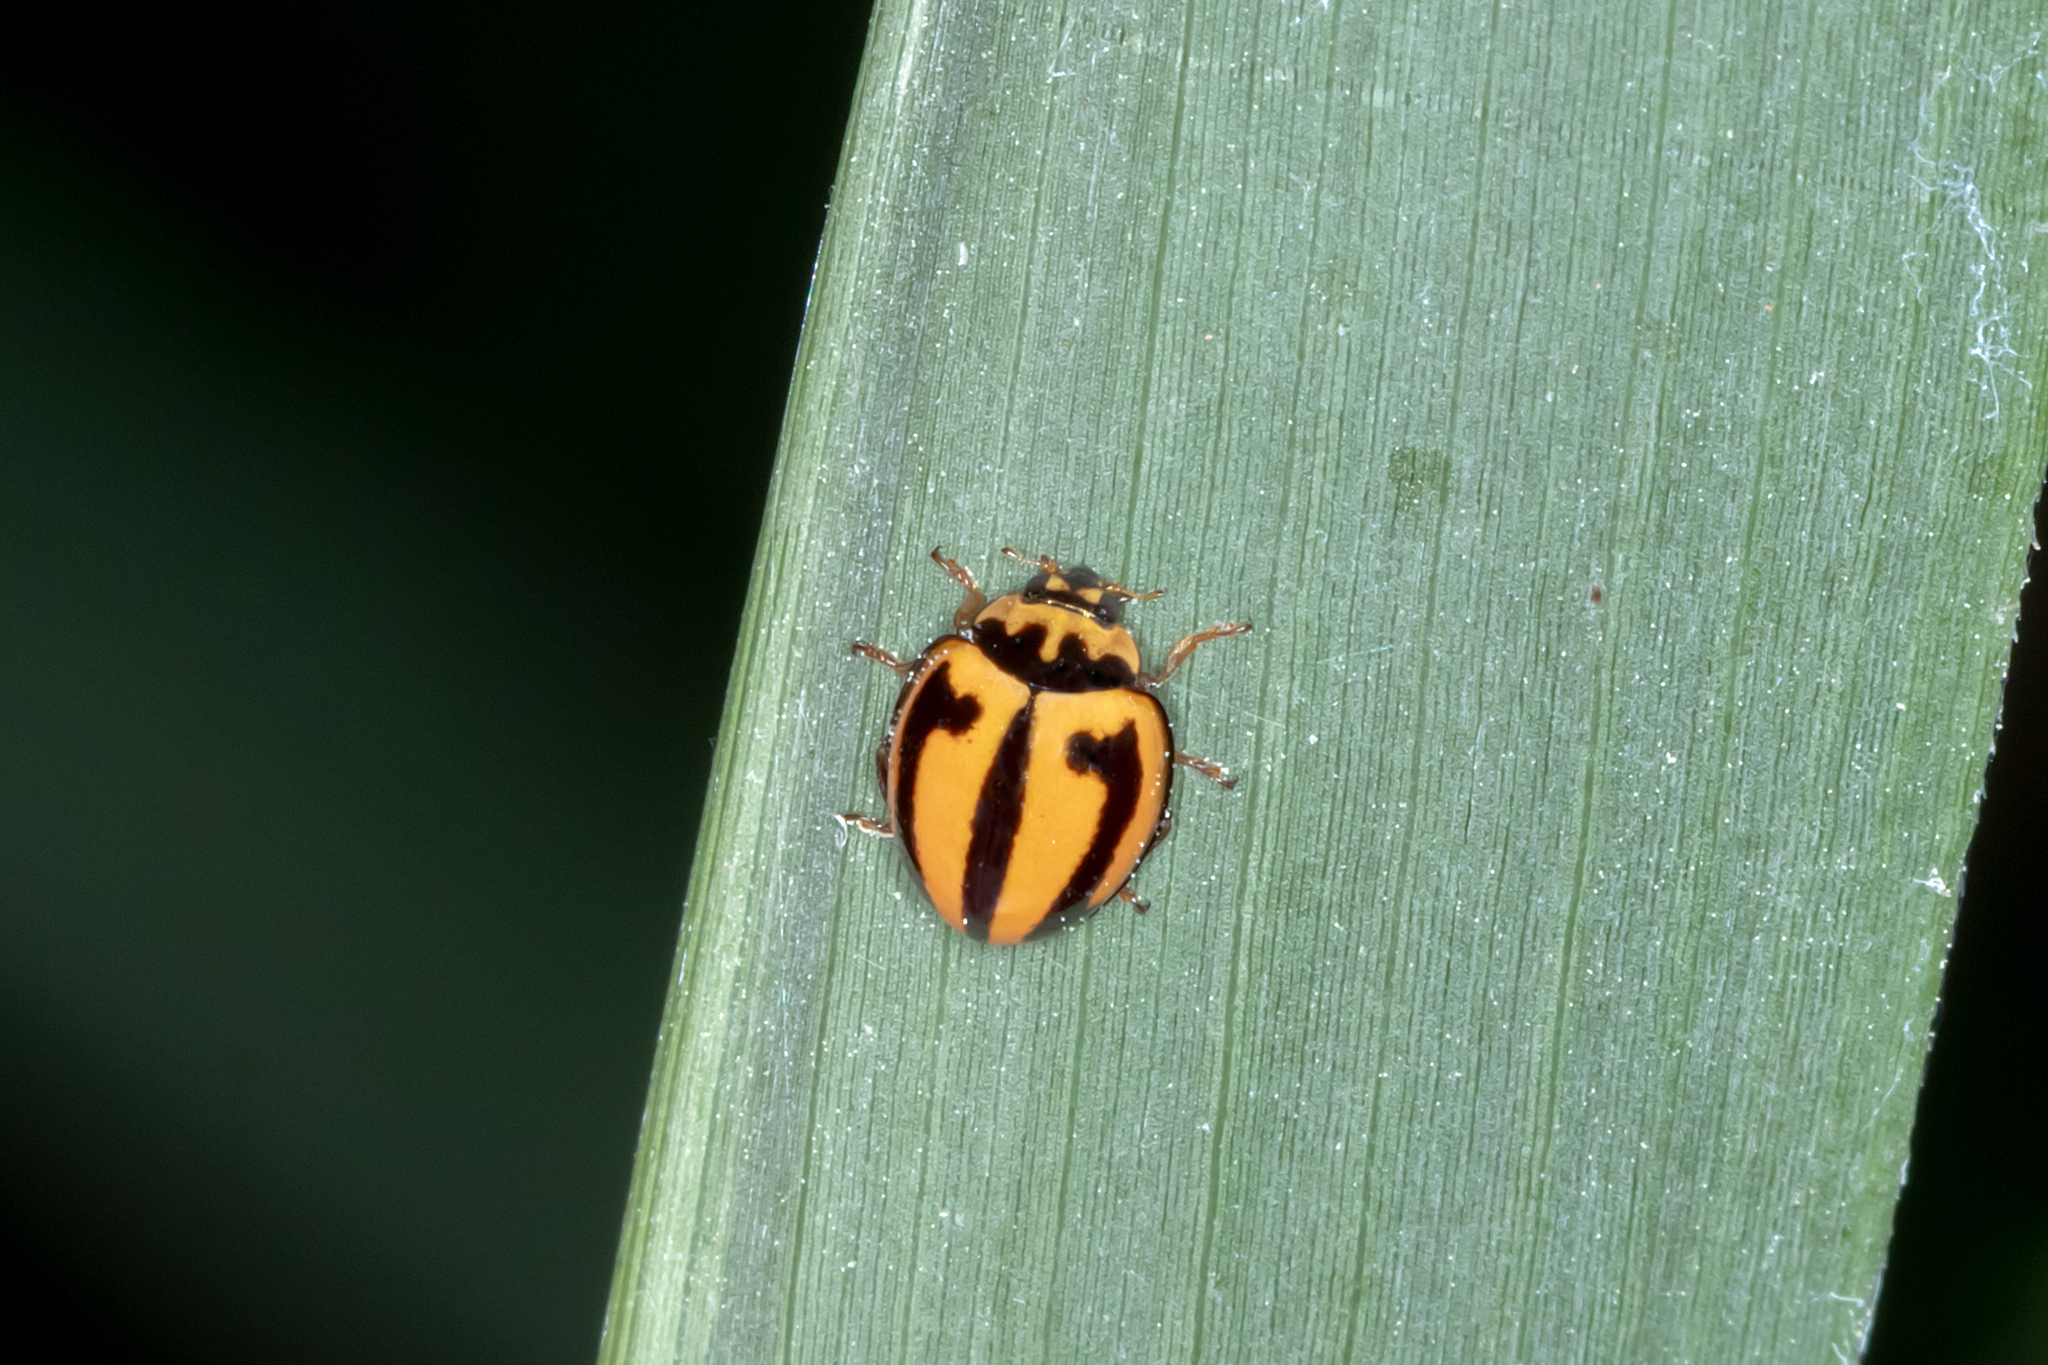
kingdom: Animalia
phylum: Arthropoda
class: Insecta
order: Coleoptera
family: Coccinellidae
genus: Micraspis
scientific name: Micraspis frenata
